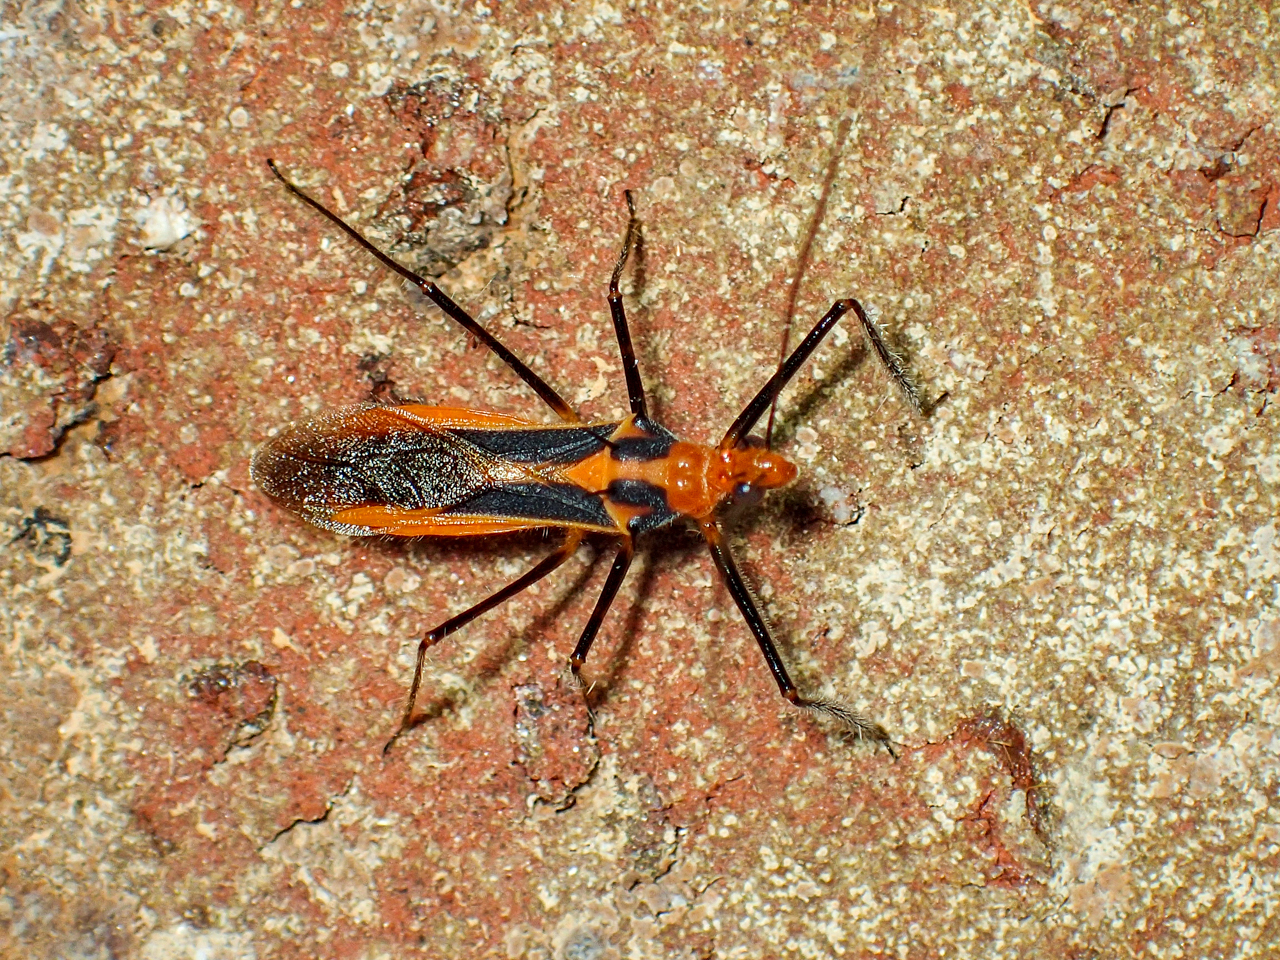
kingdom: Animalia
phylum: Arthropoda
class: Insecta
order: Hemiptera
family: Reduviidae
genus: Repipta
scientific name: Repipta taurus
